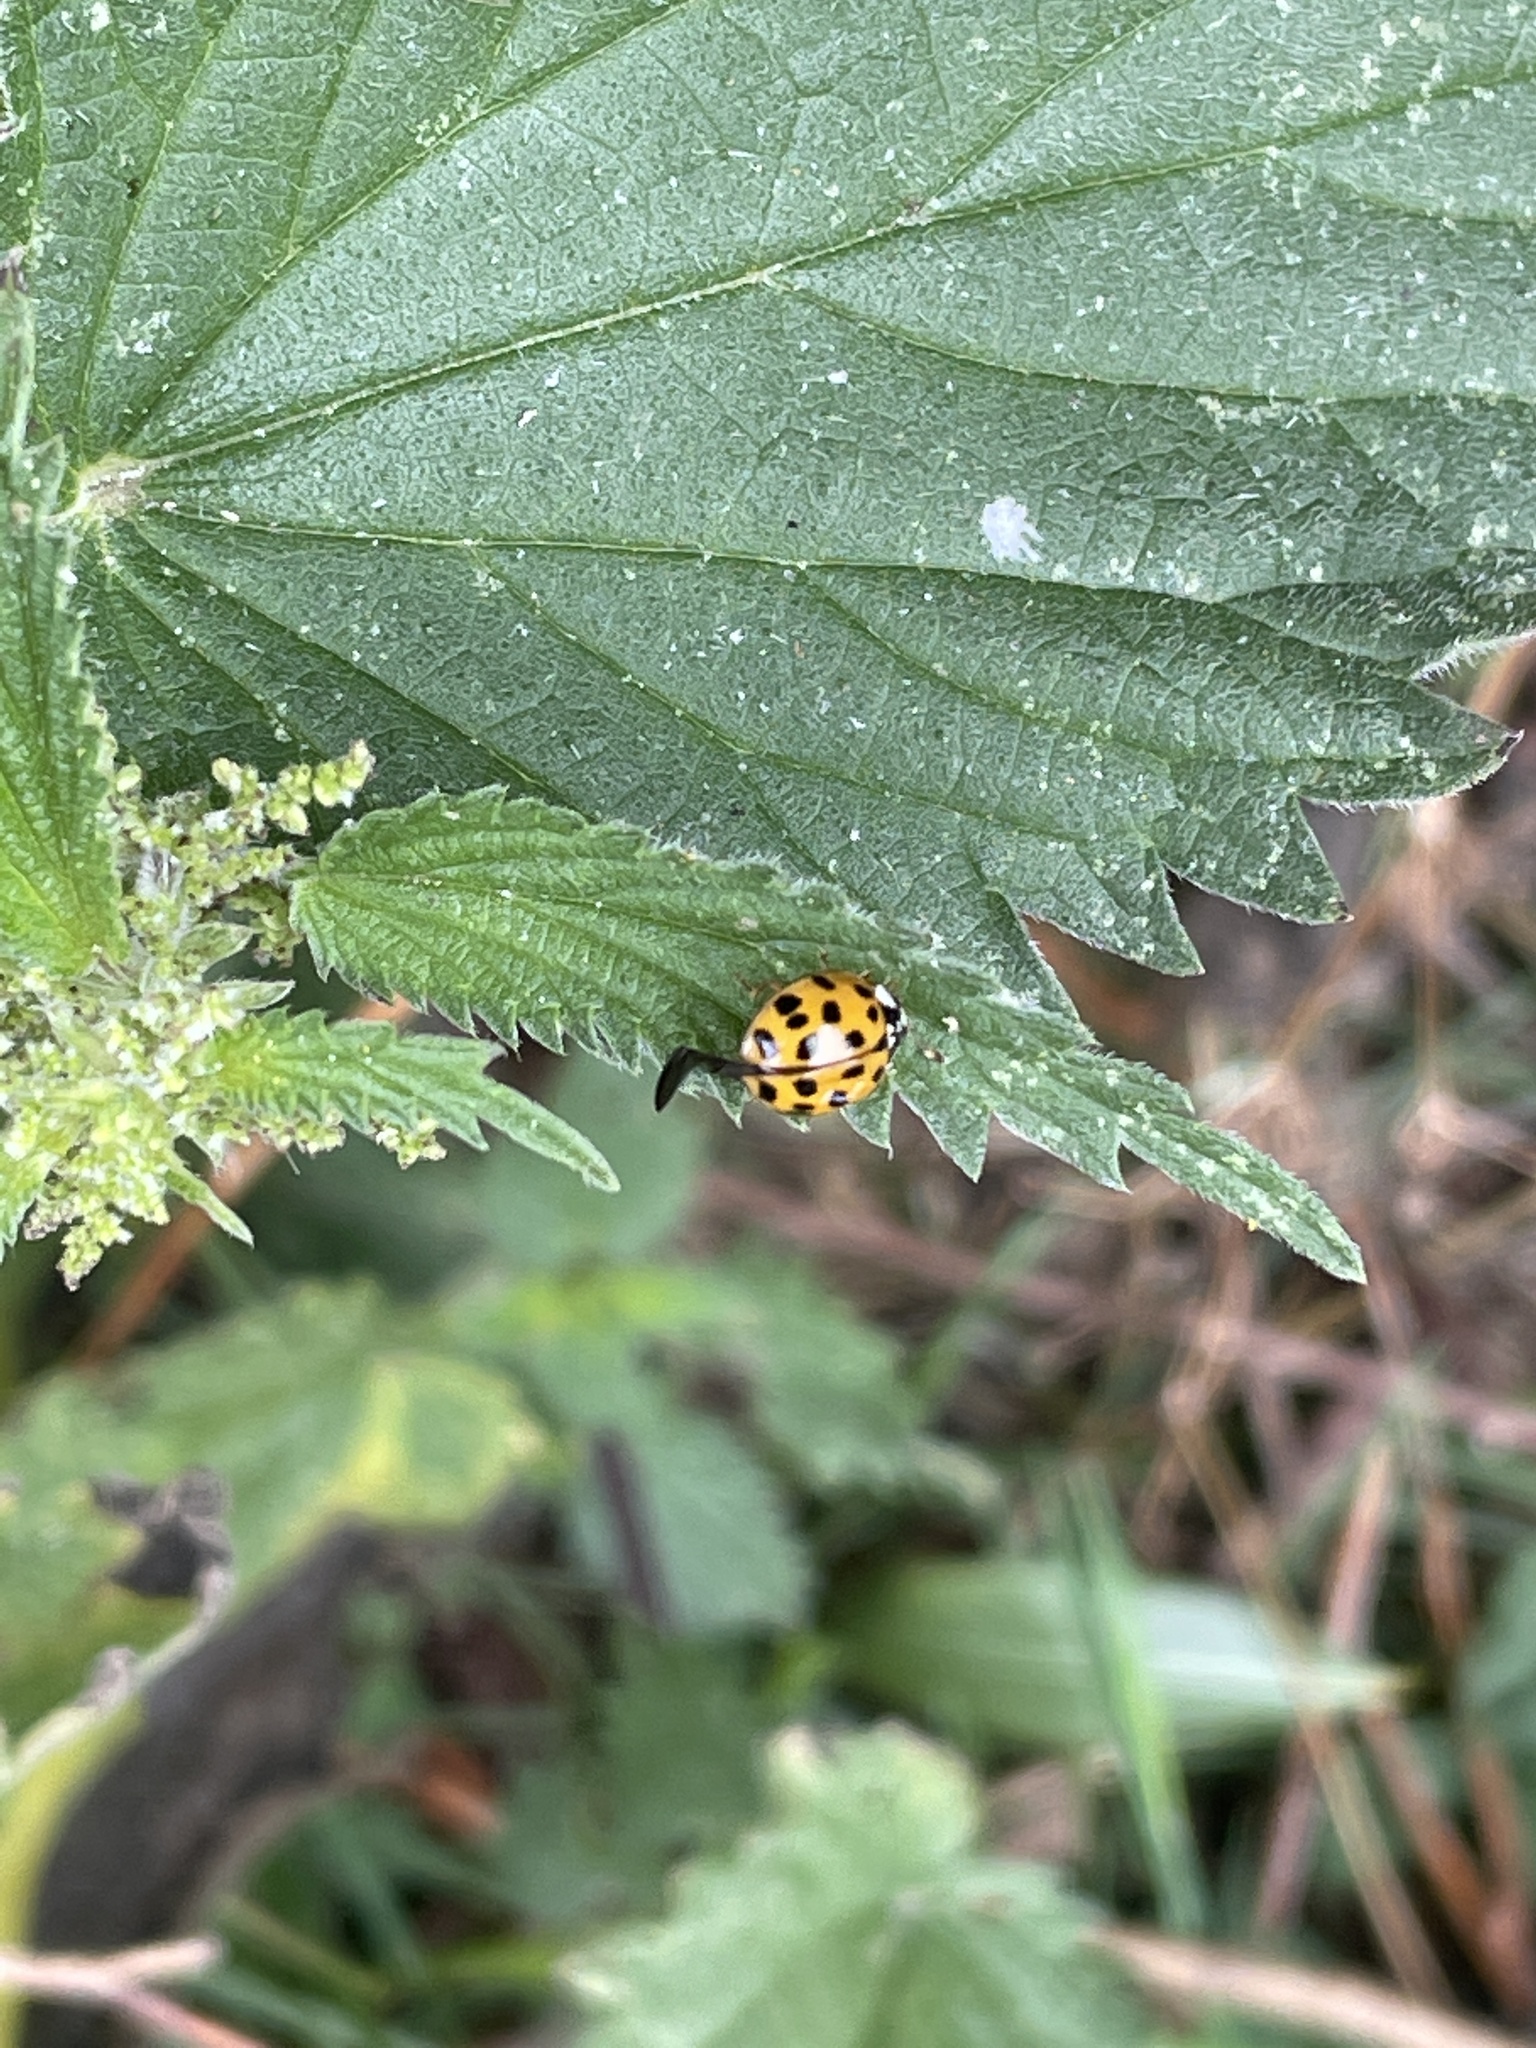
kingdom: Animalia
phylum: Arthropoda
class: Insecta
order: Coleoptera
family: Coccinellidae
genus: Harmonia
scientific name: Harmonia axyridis
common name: Harlequin ladybird
